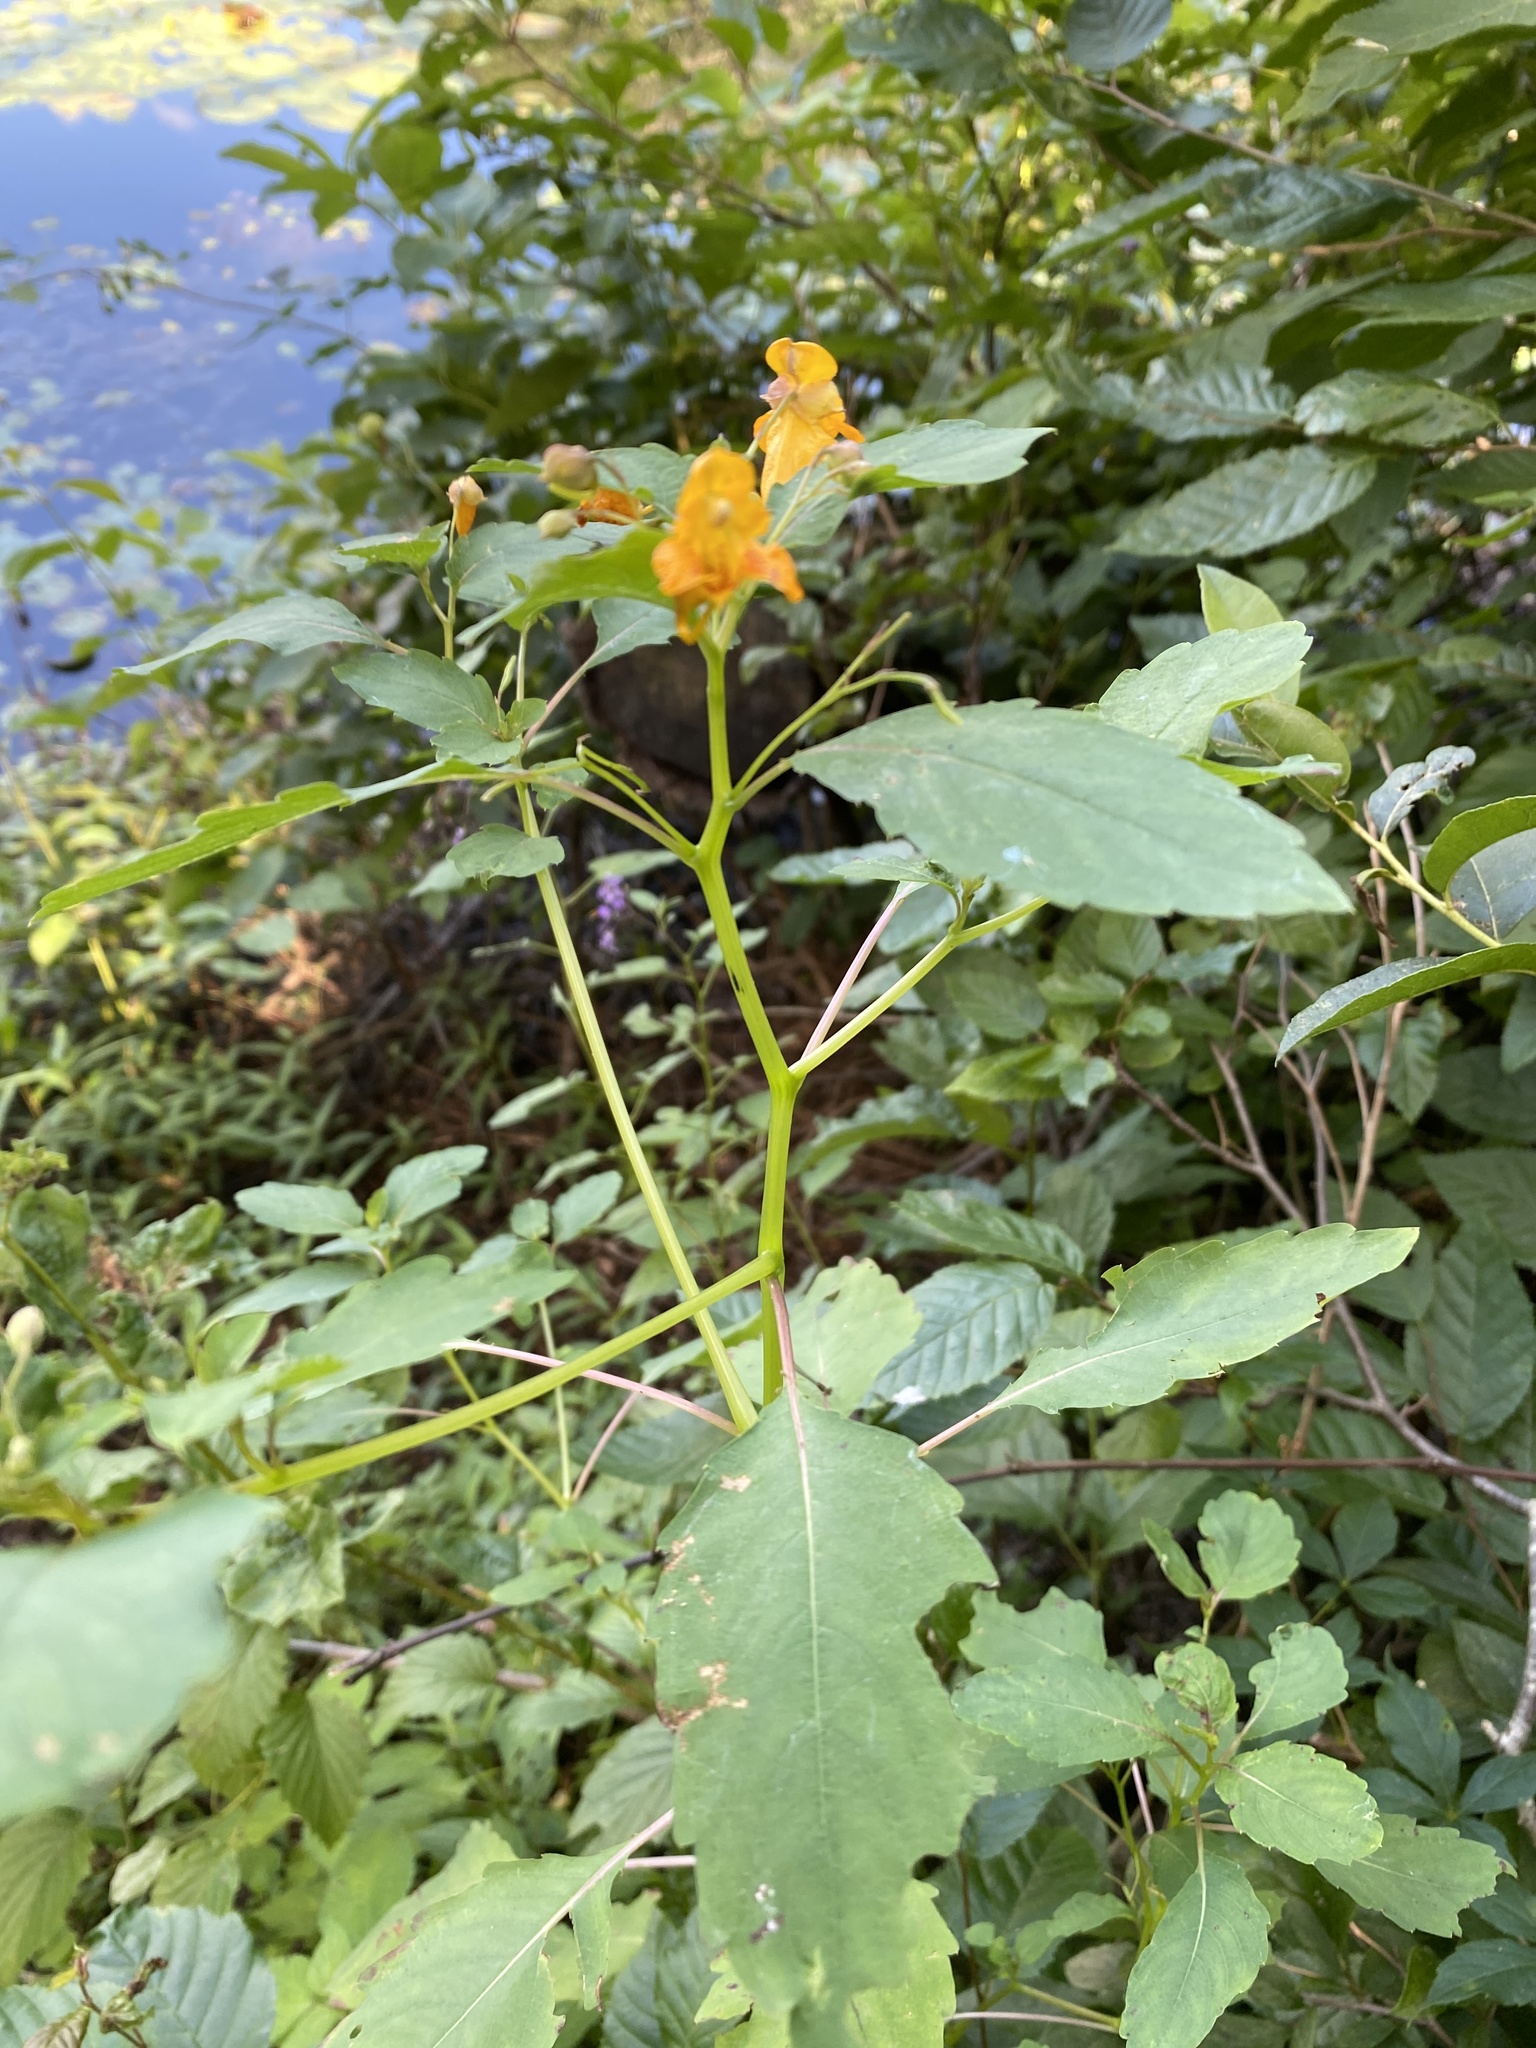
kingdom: Plantae
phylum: Tracheophyta
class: Magnoliopsida
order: Ericales
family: Balsaminaceae
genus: Impatiens
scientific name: Impatiens capensis
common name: Orange balsam
